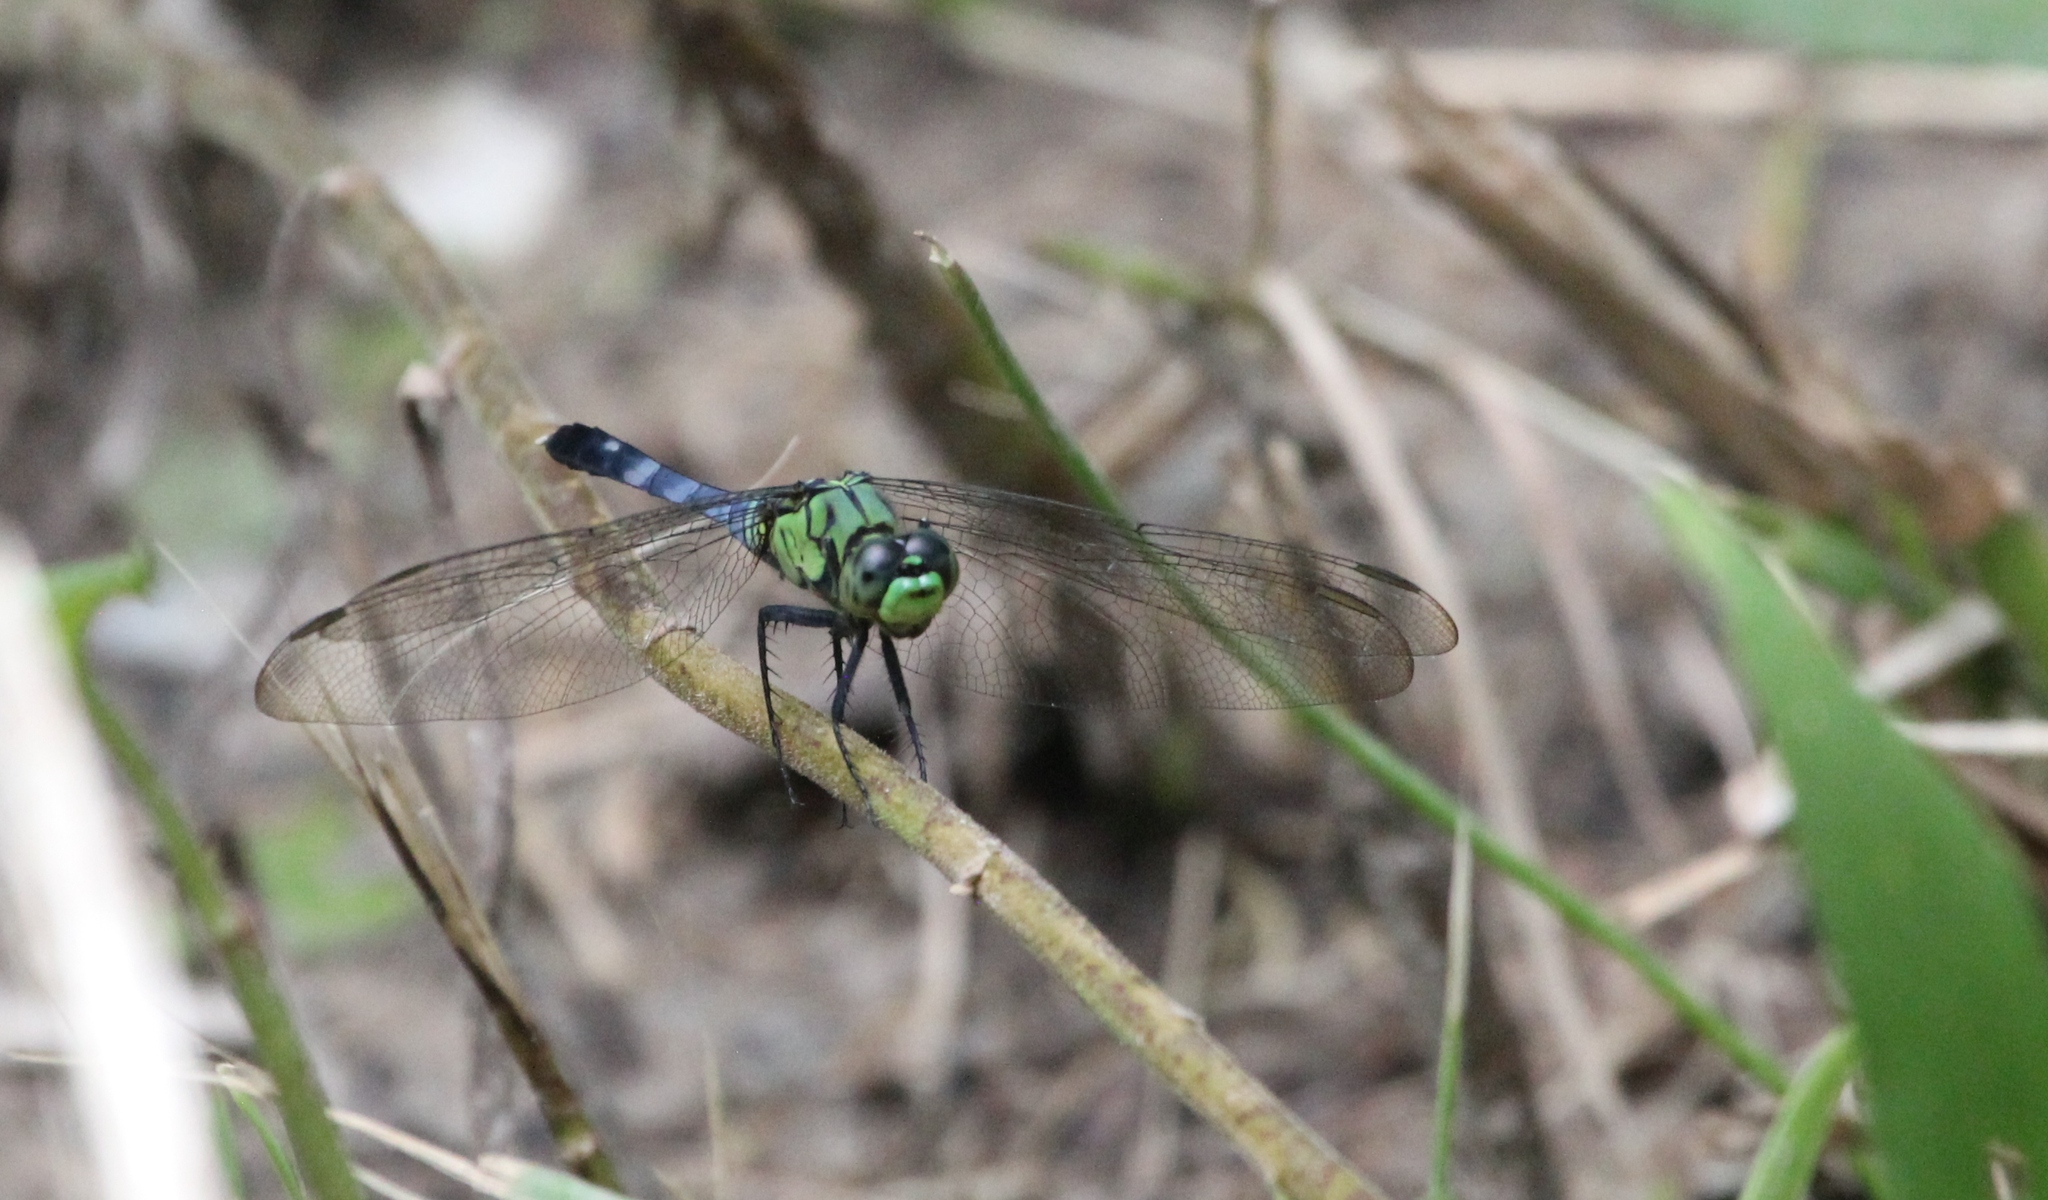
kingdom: Animalia
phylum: Arthropoda
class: Insecta
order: Odonata
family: Libellulidae
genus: Erythemis
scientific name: Erythemis simplicicollis
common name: Eastern pondhawk
